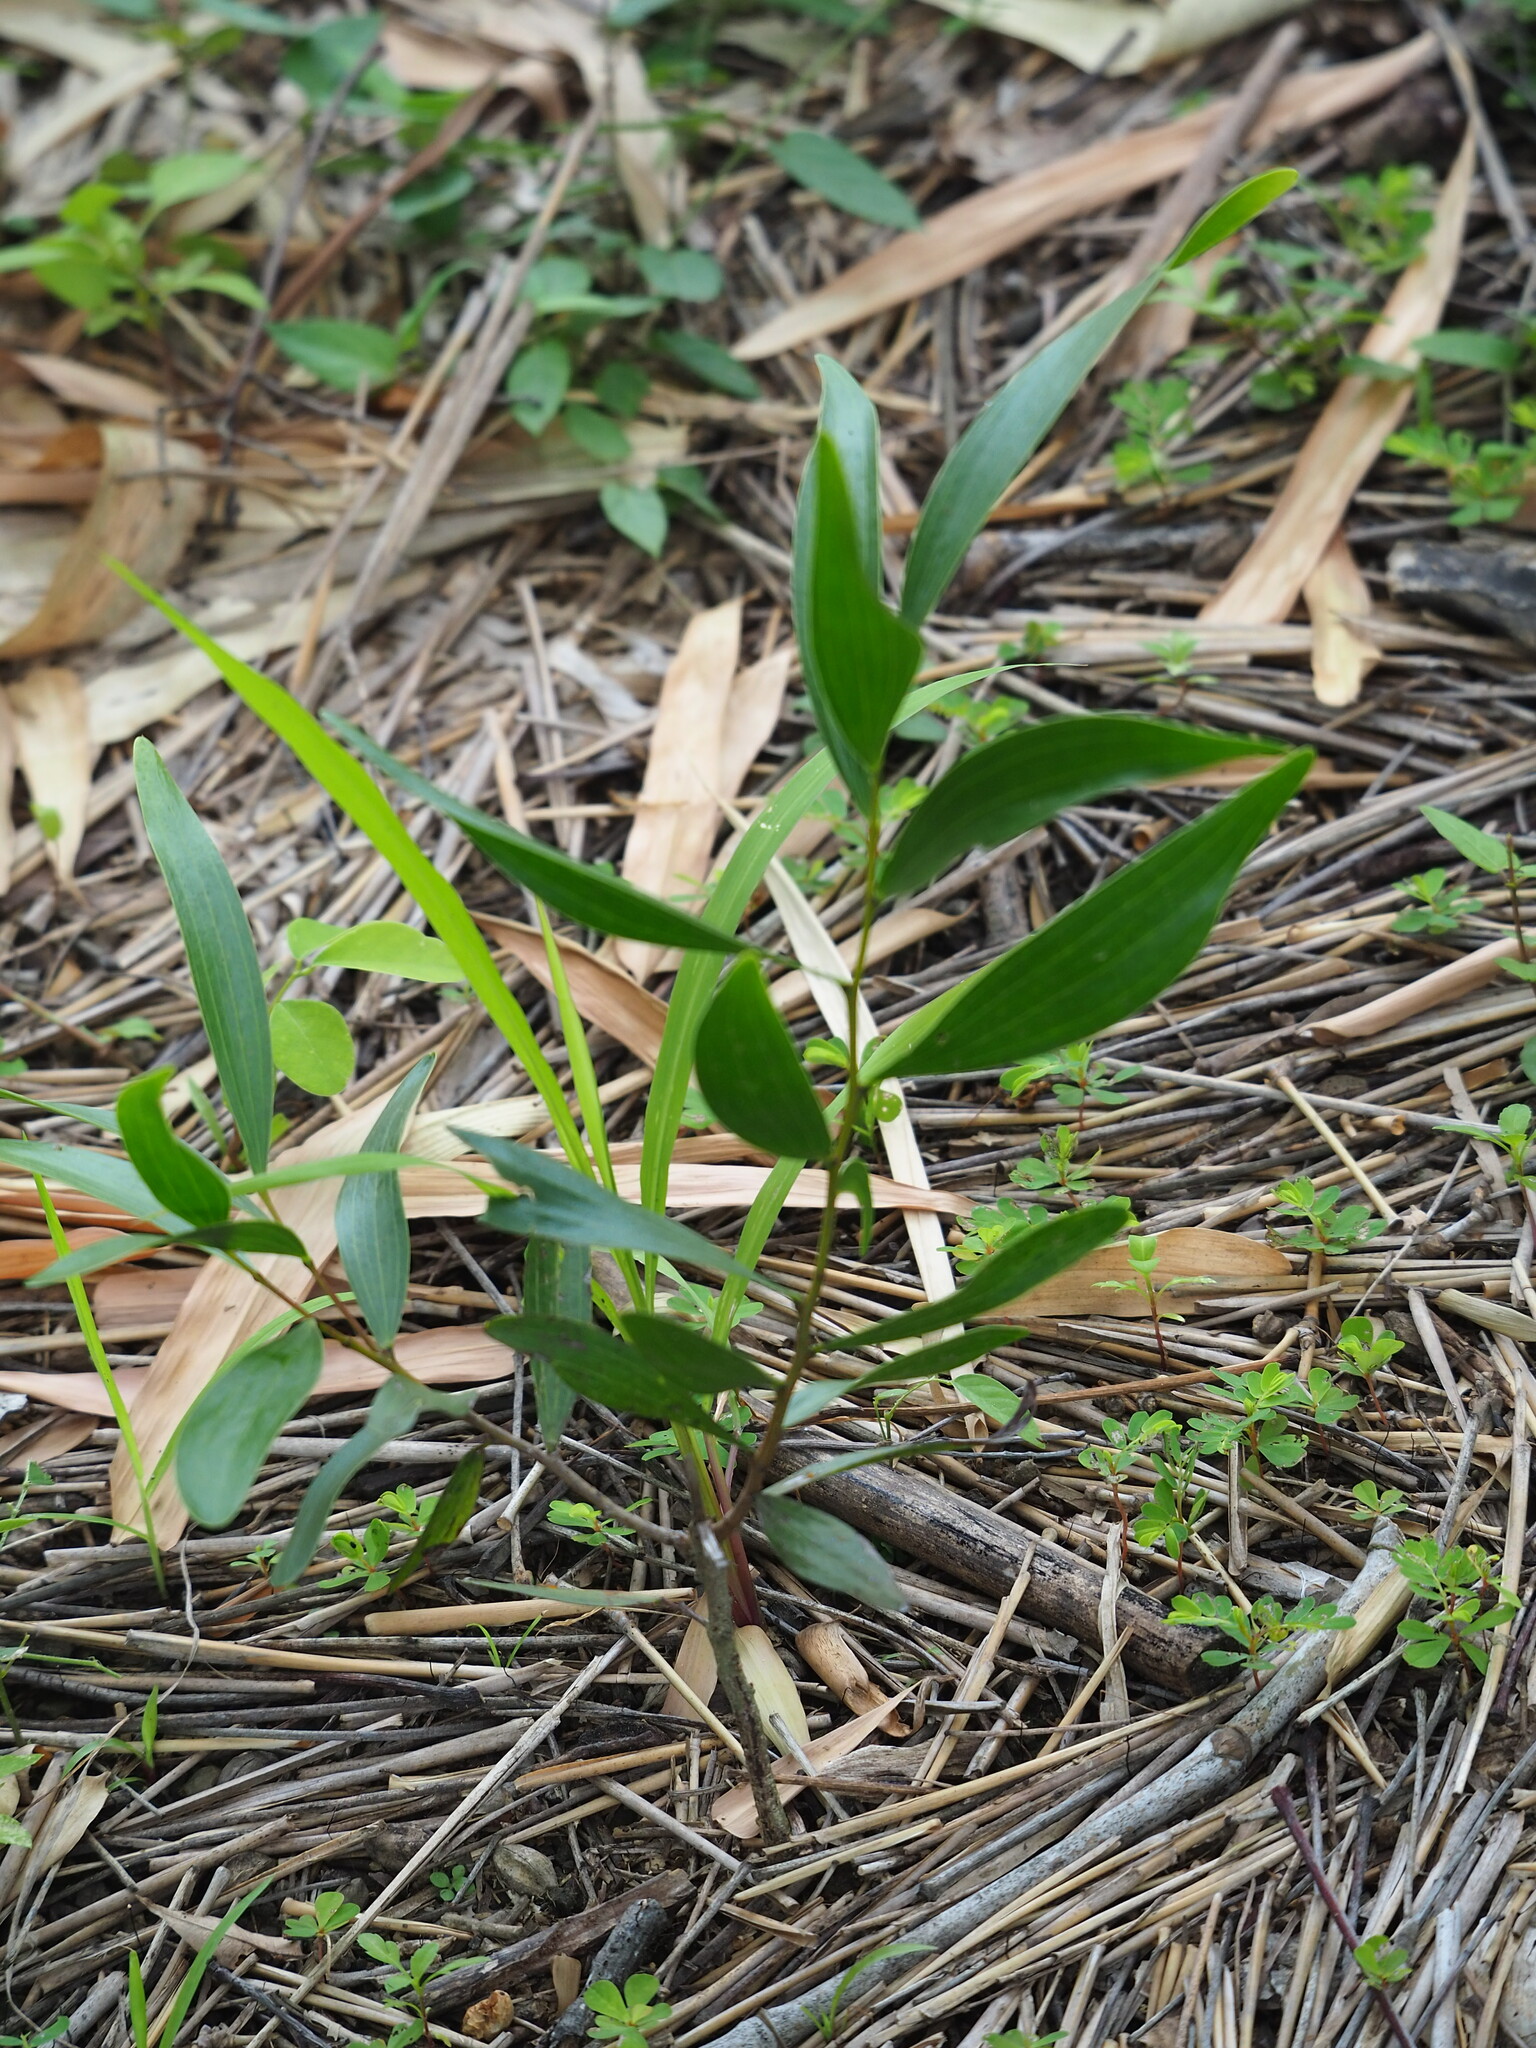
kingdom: Plantae
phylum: Tracheophyta
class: Magnoliopsida
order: Fabales
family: Fabaceae
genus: Acacia
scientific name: Acacia confusa
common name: Formosan koa
